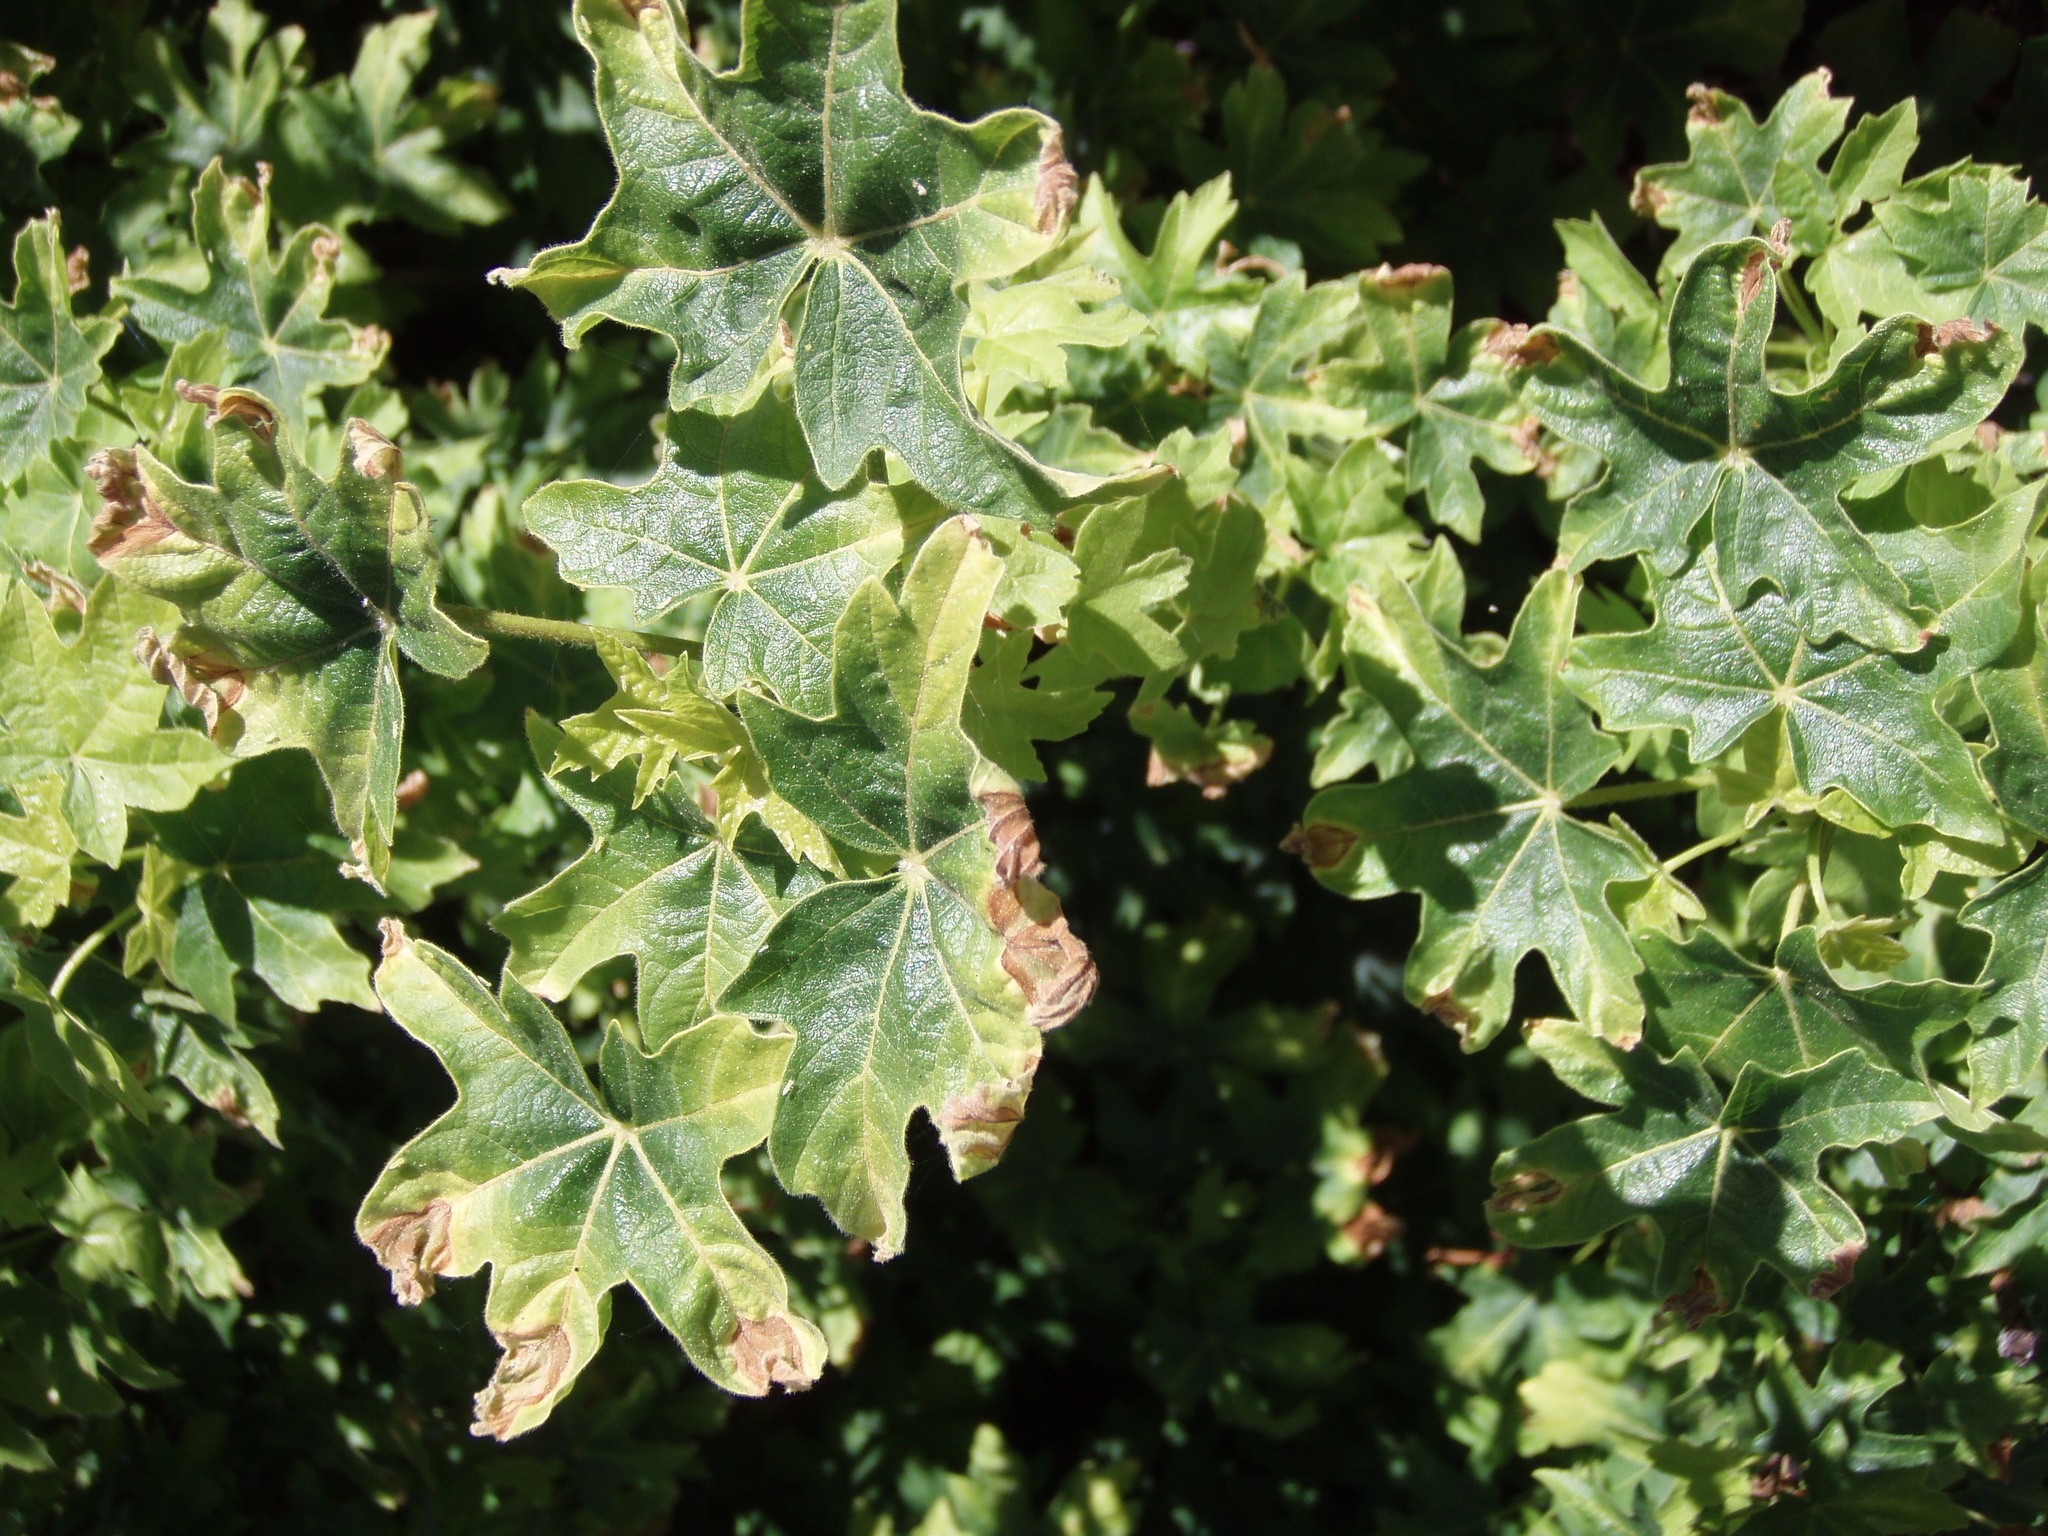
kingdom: Plantae
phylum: Tracheophyta
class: Magnoliopsida
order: Sapindales
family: Sapindaceae
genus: Acer
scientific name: Acer macrophyllum
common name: Oregon maple
